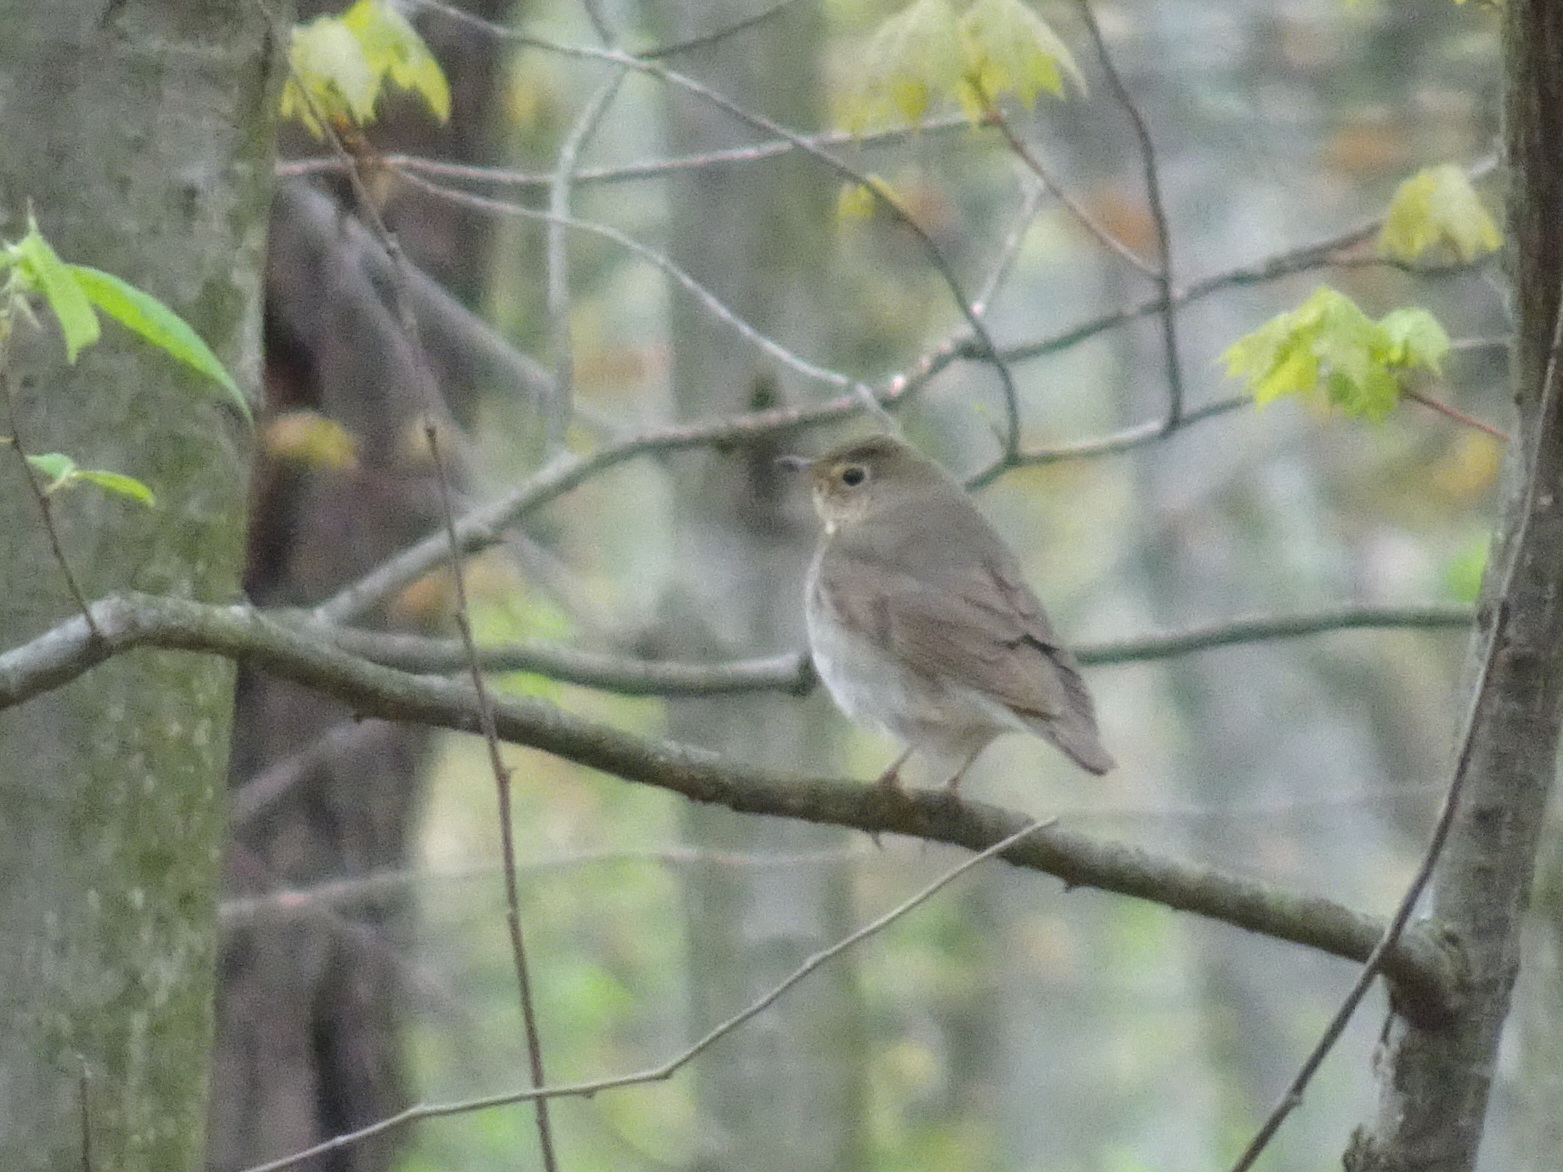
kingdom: Animalia
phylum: Chordata
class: Aves
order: Passeriformes
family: Turdidae
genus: Catharus
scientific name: Catharus ustulatus
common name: Swainson's thrush
